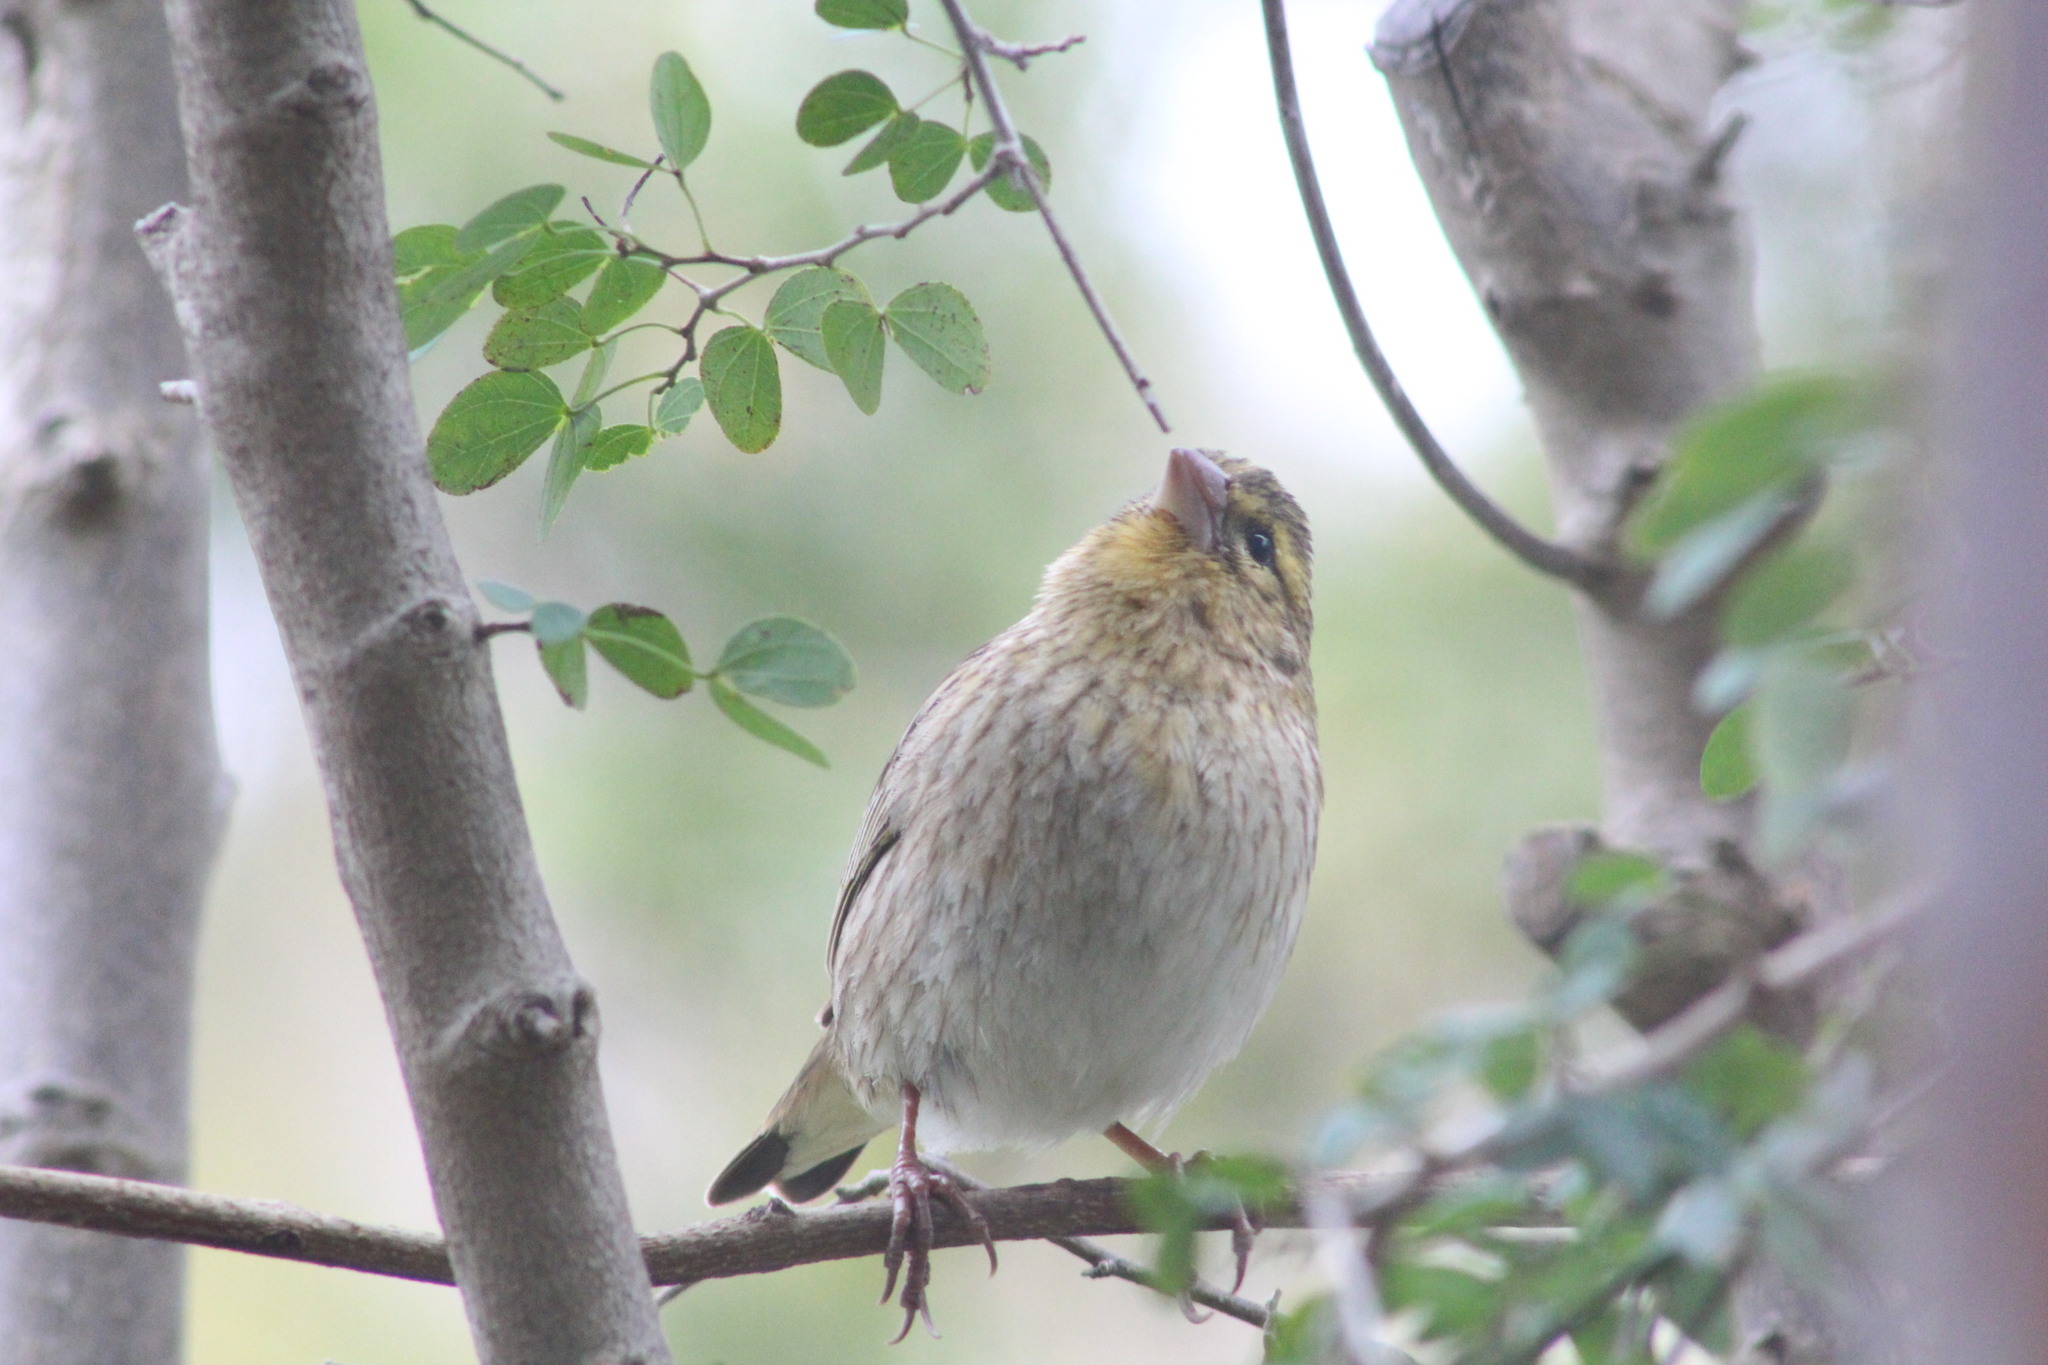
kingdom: Animalia
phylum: Chordata
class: Aves
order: Passeriformes
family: Ploceidae
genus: Euplectes
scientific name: Euplectes capensis
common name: Yellow bishop
